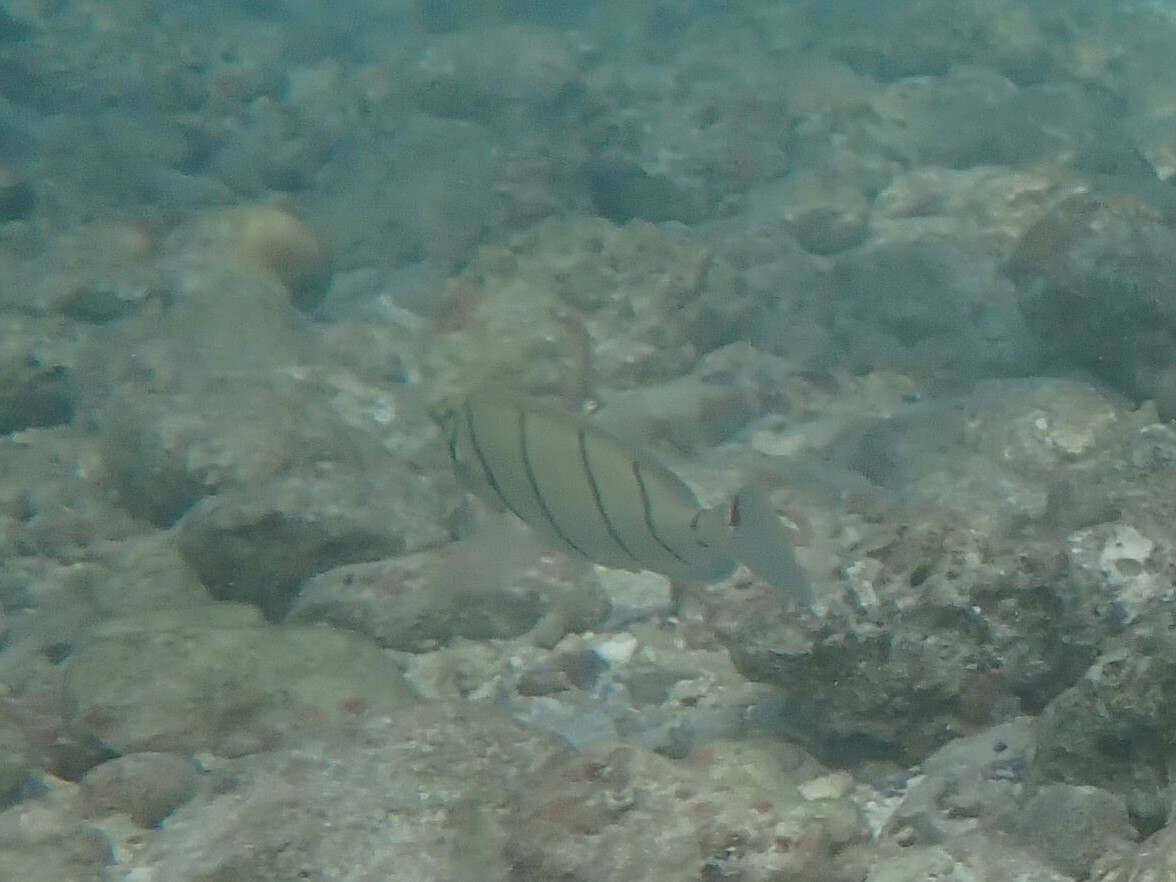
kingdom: Animalia
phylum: Chordata
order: Perciformes
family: Acanthuridae
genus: Acanthurus
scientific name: Acanthurus triostegus
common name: Convict surgeonfish
